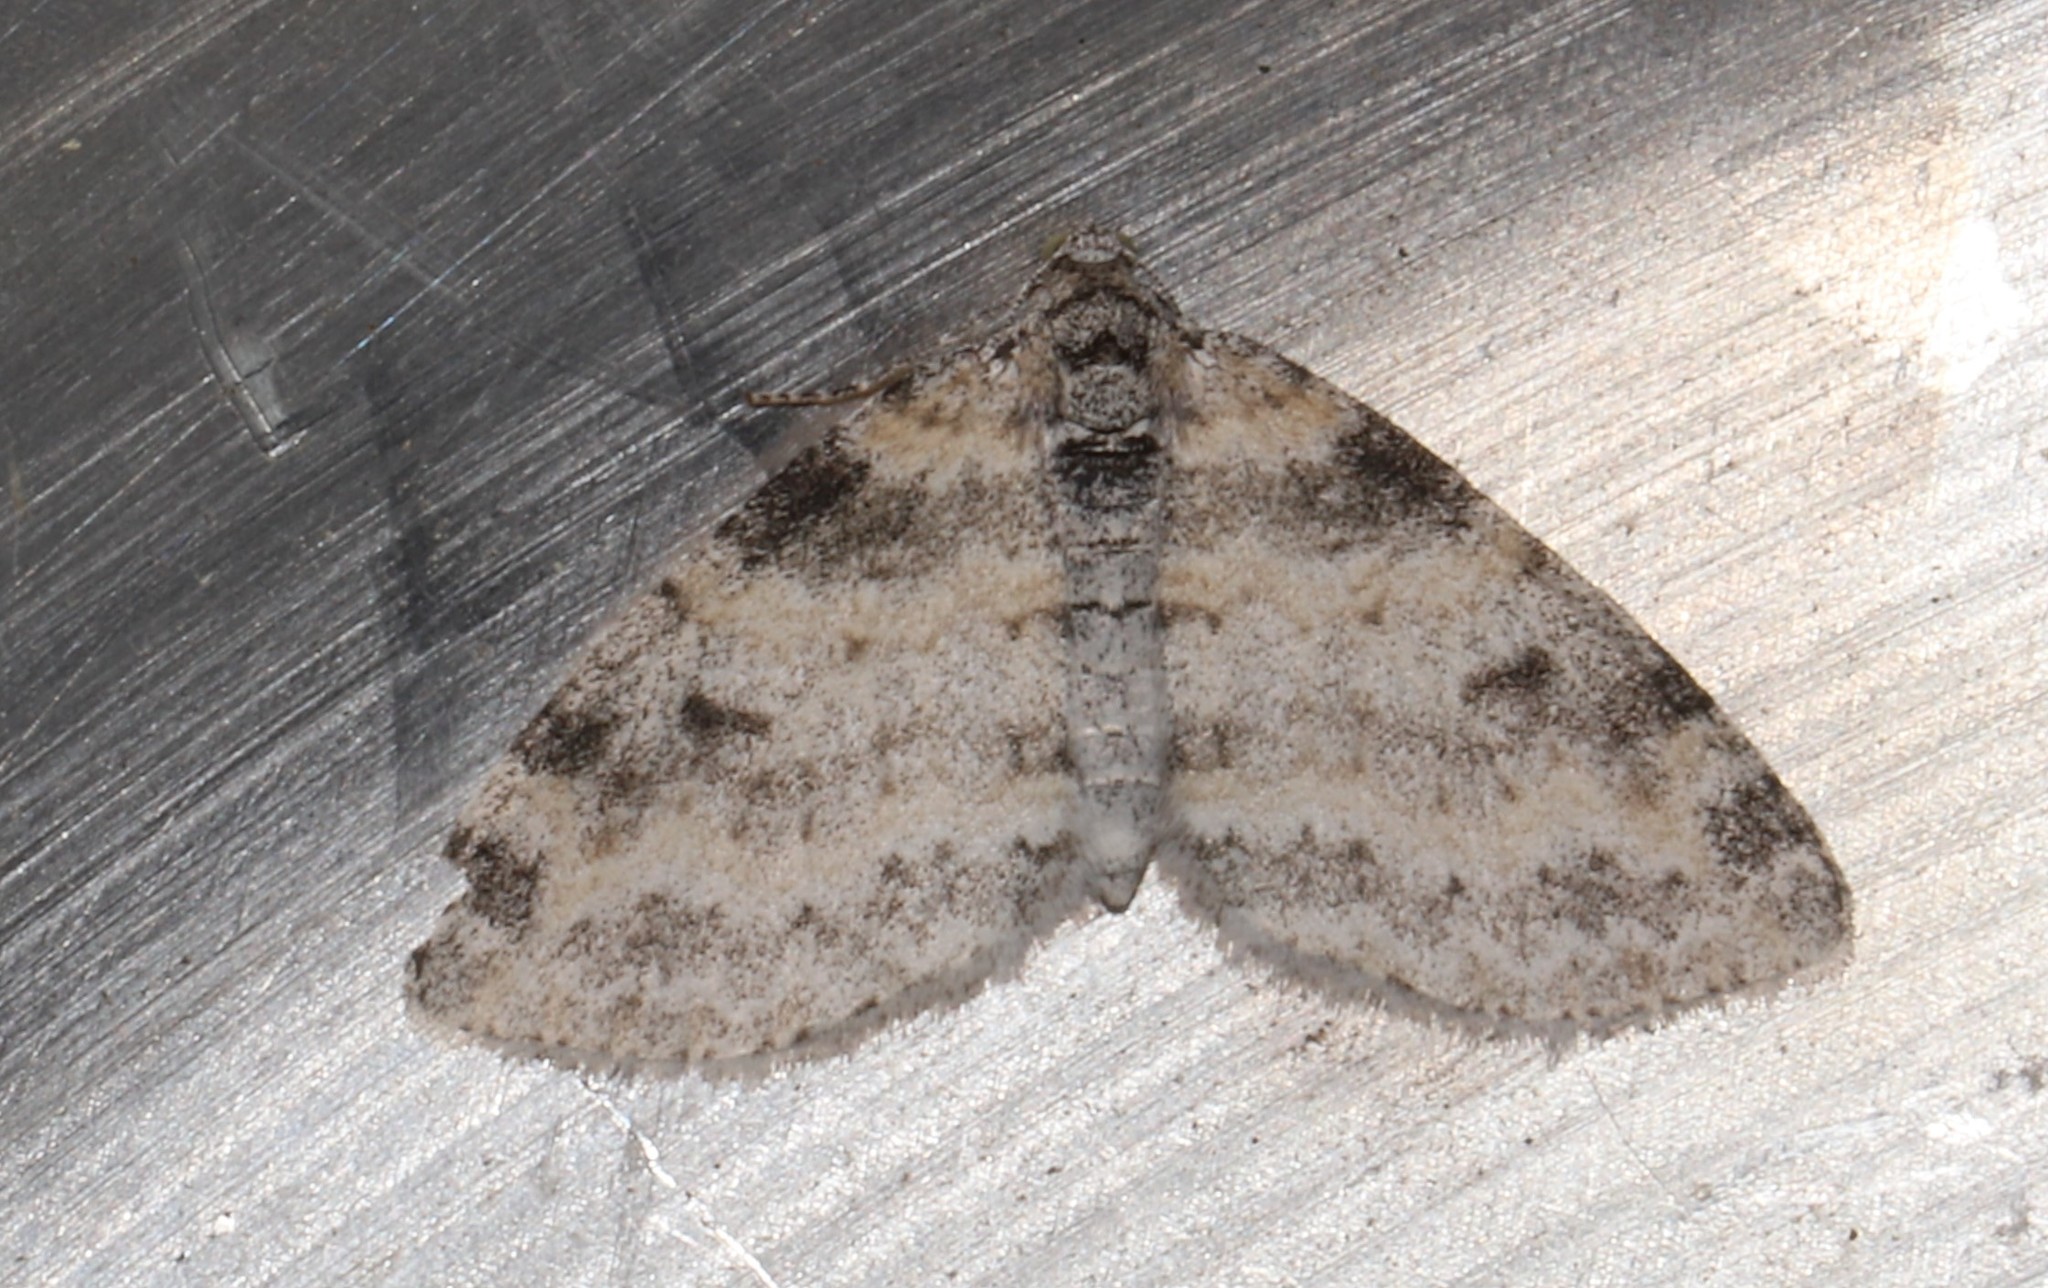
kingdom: Animalia
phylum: Arthropoda
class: Insecta
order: Lepidoptera
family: Geometridae
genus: Lobophora
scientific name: Lobophora nivigerata
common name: Powdered bigwing
